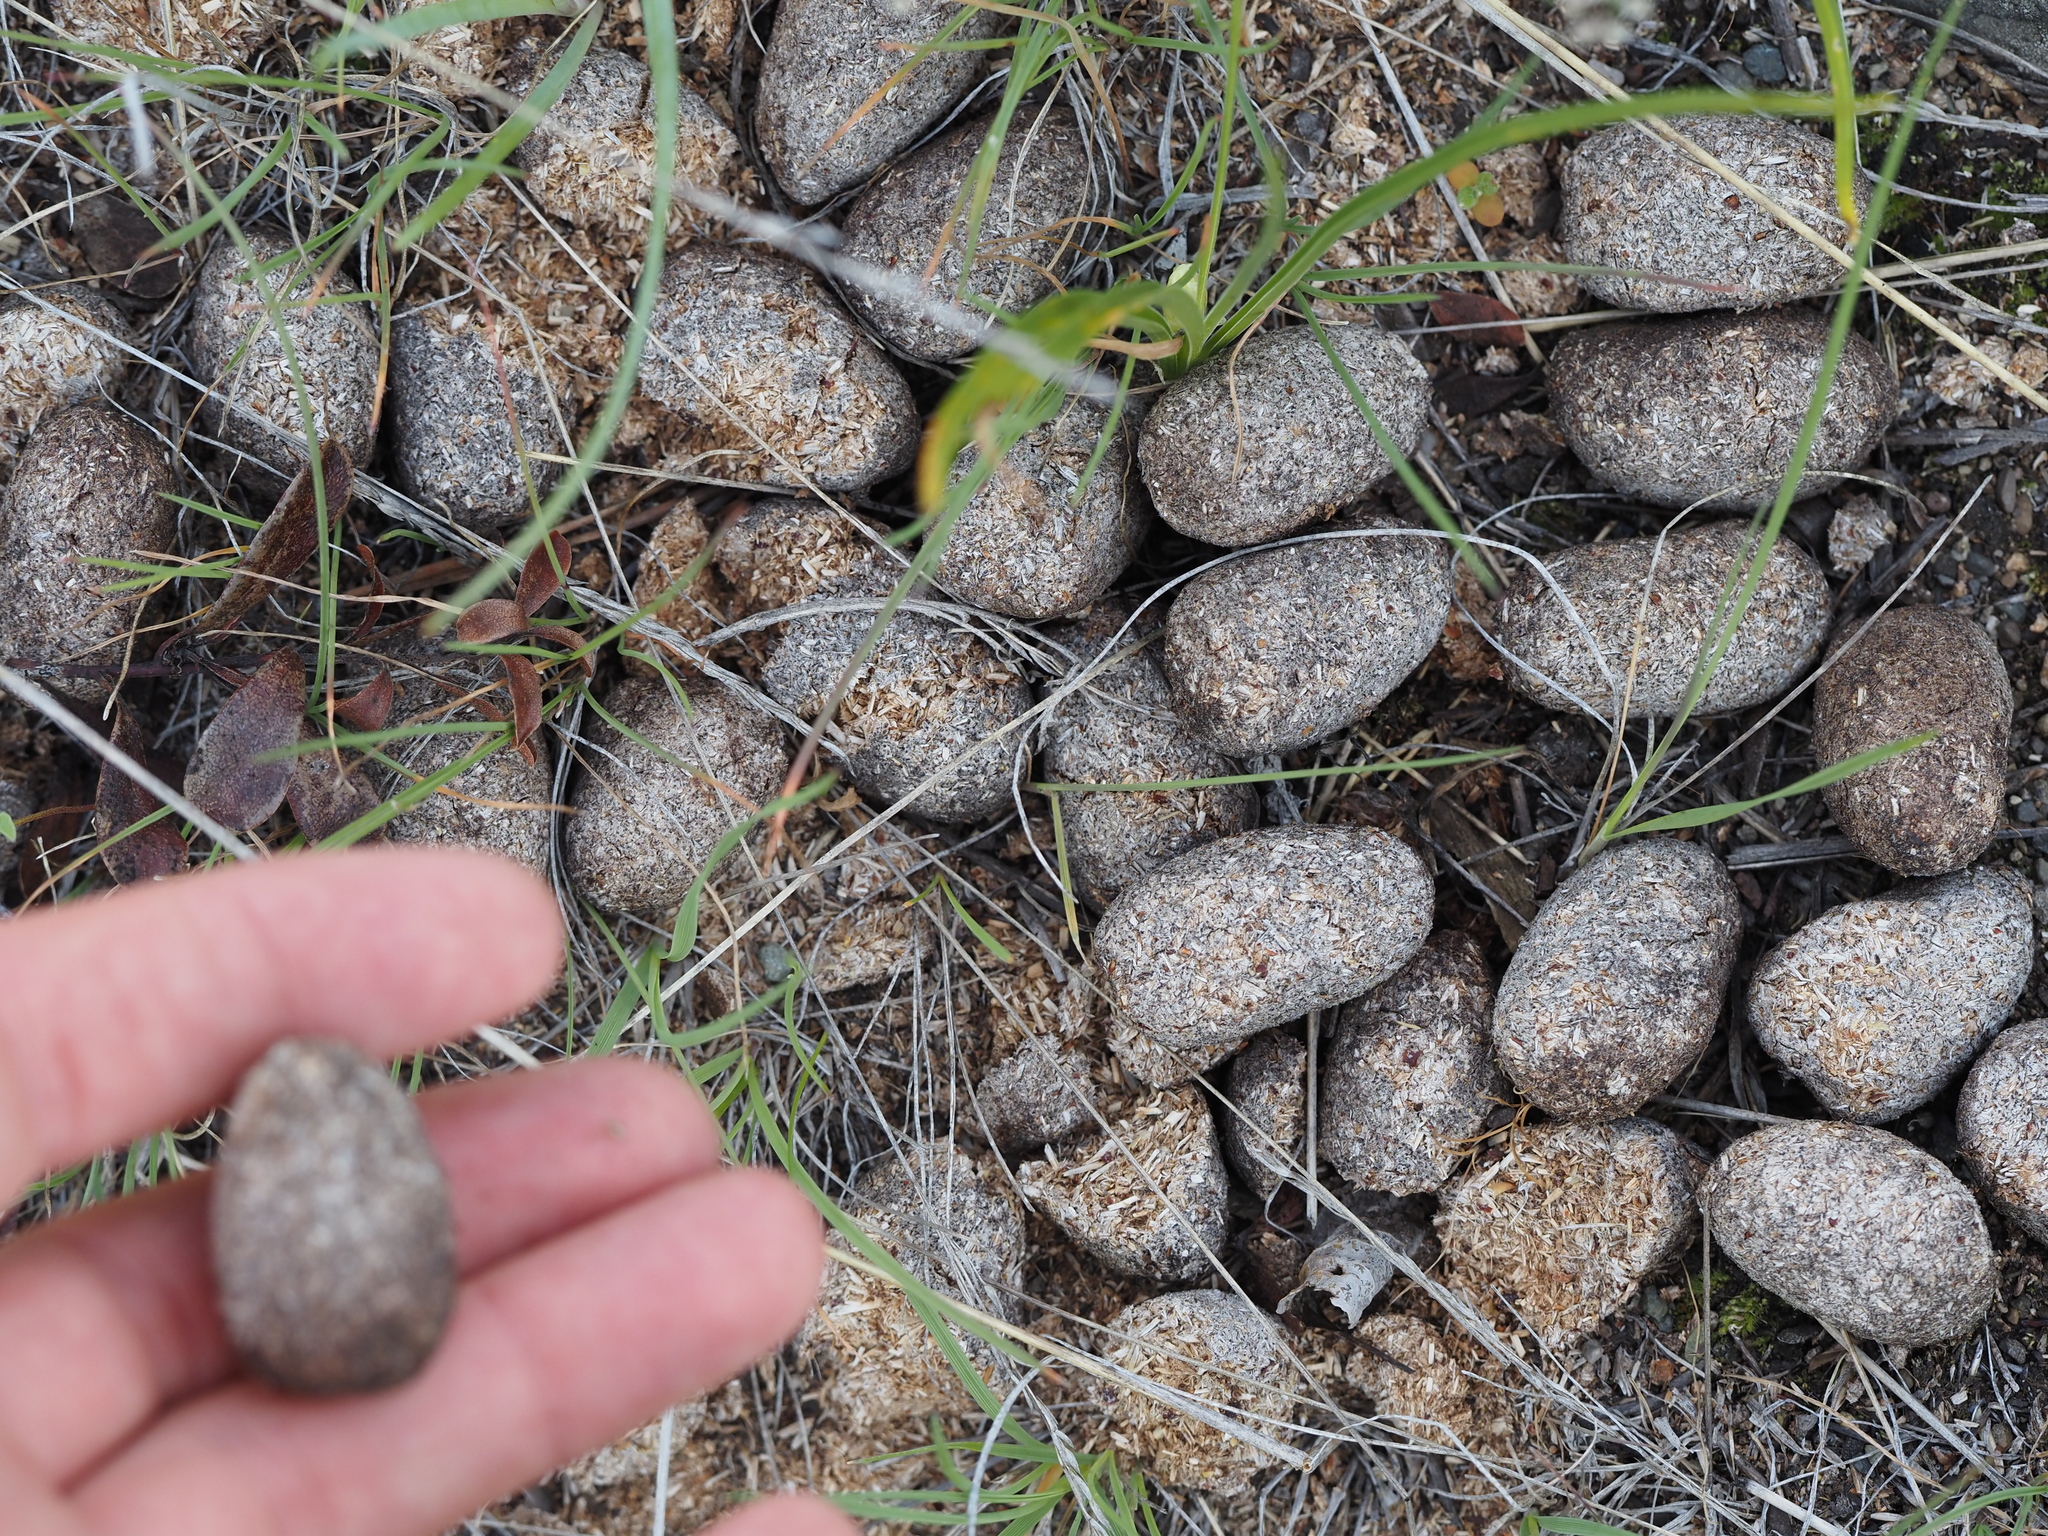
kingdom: Animalia
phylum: Chordata
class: Mammalia
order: Artiodactyla
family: Cervidae
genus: Alces
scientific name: Alces alces
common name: Moose
